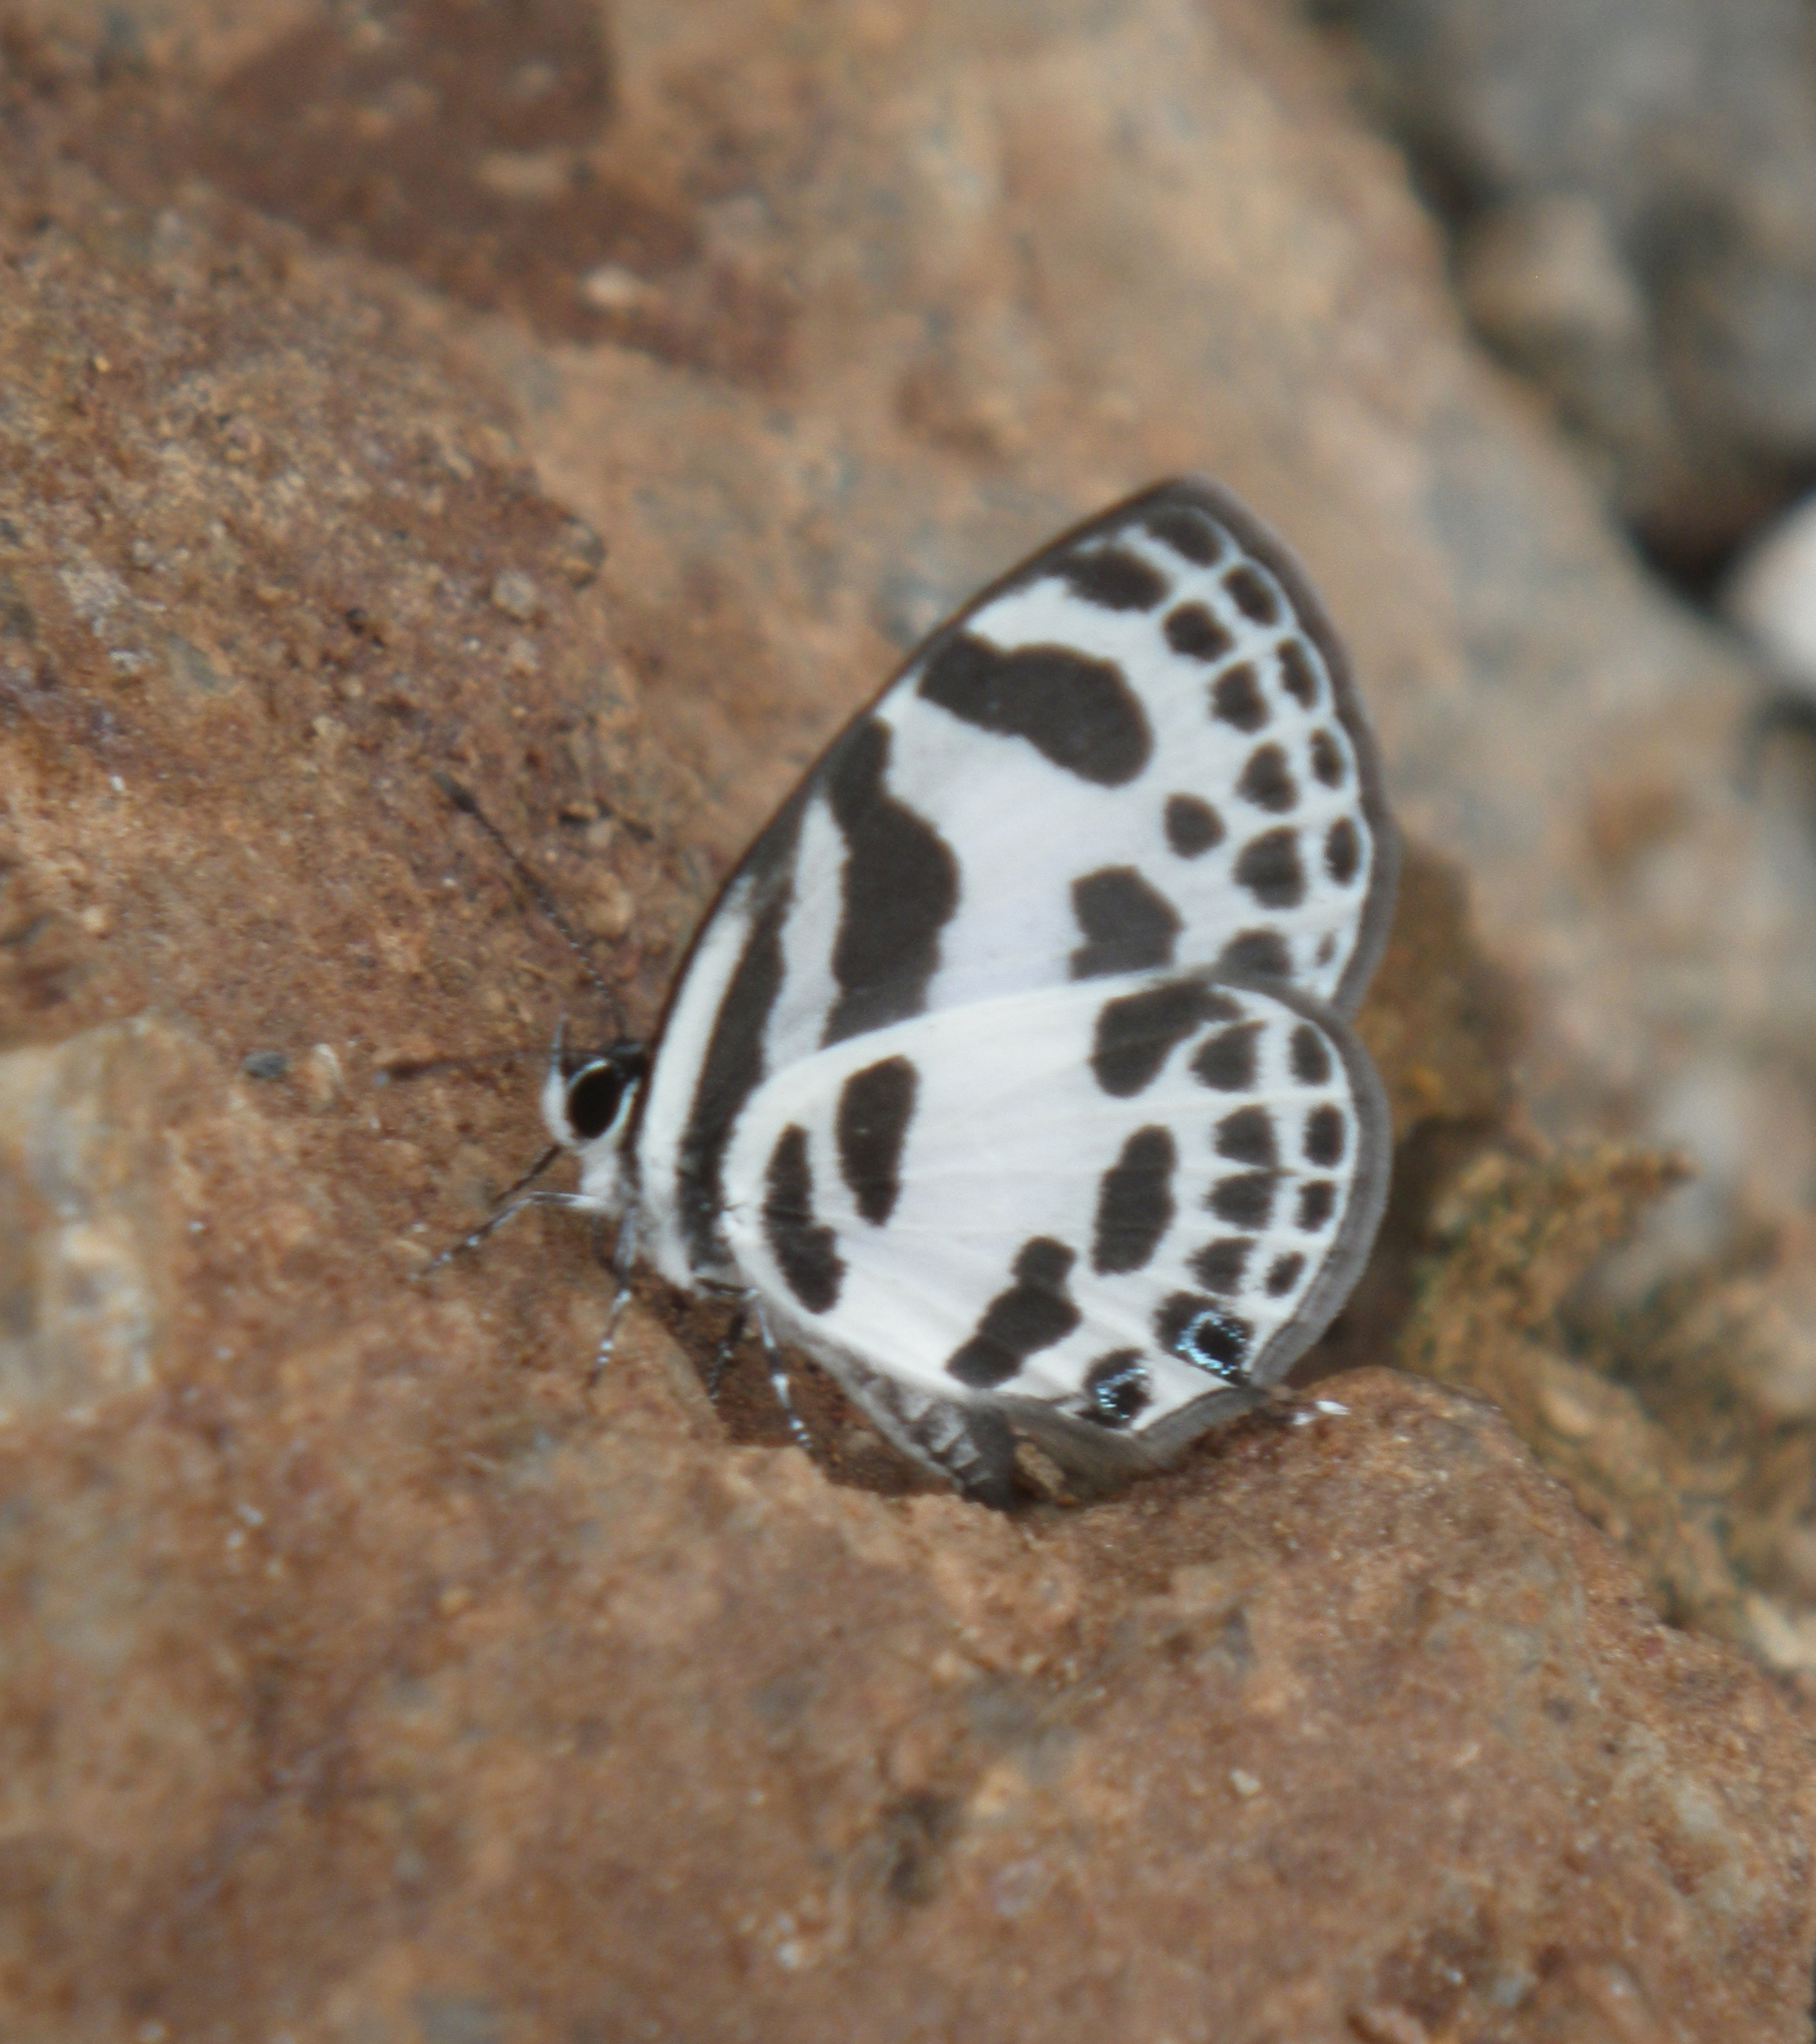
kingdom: Animalia
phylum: Arthropoda
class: Insecta
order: Lepidoptera
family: Lycaenidae
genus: Discolampa
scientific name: Discolampa ethion
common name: Banded blue pierrot
